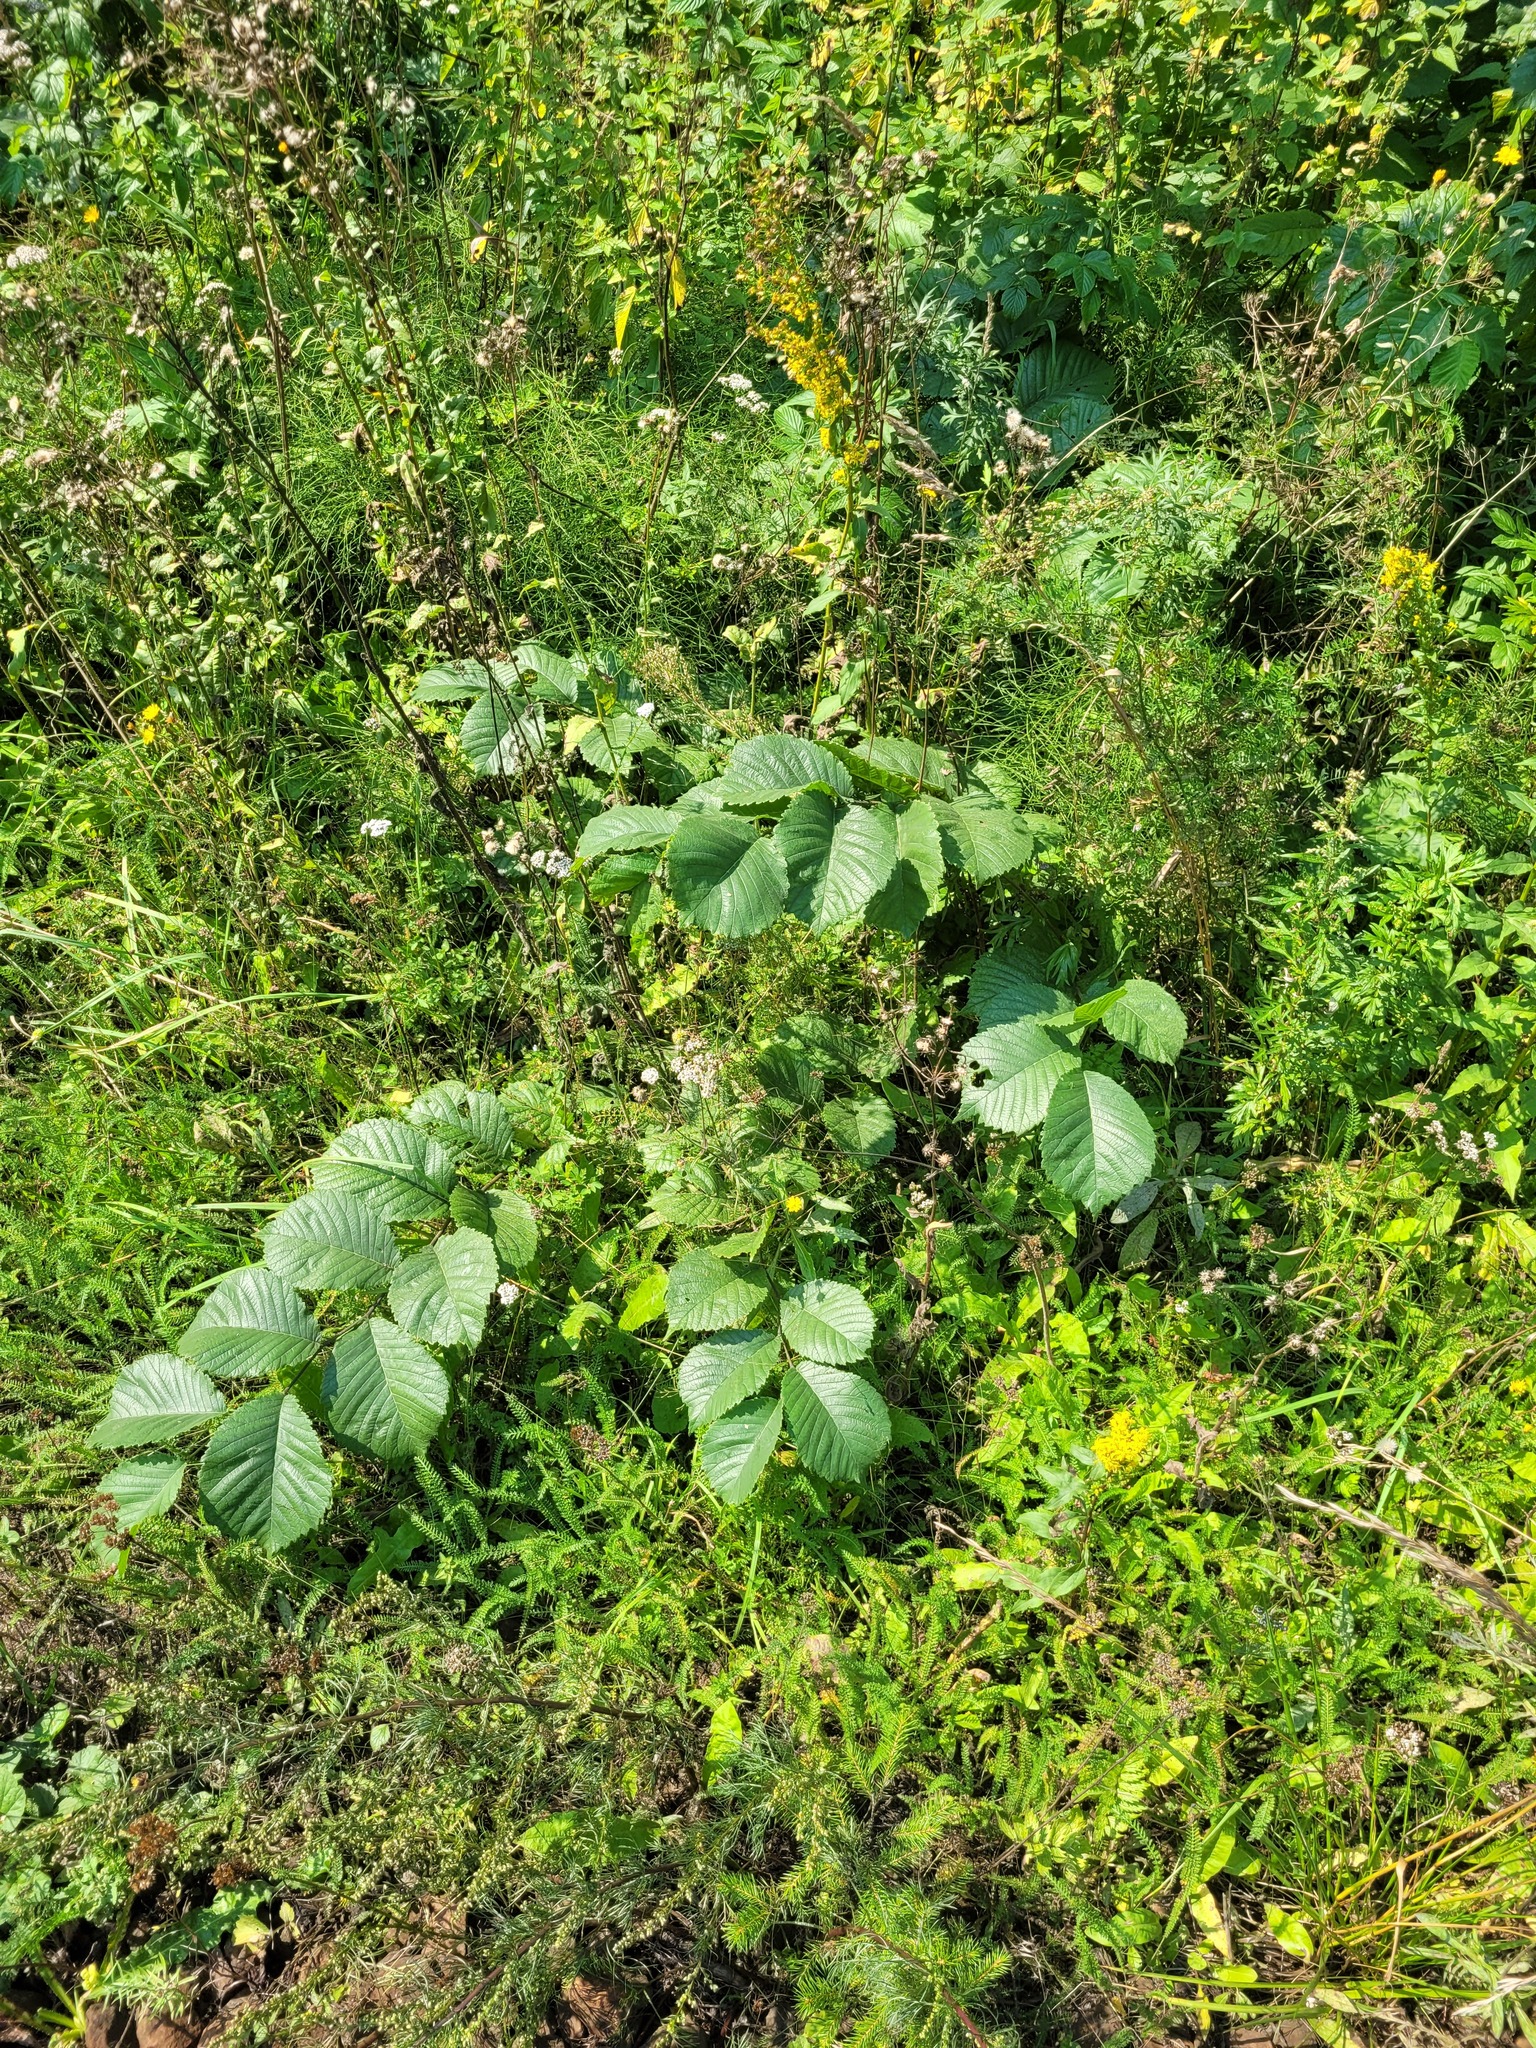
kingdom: Plantae
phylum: Tracheophyta
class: Magnoliopsida
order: Rosales
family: Ulmaceae
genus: Ulmus
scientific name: Ulmus glabra
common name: Wych elm
